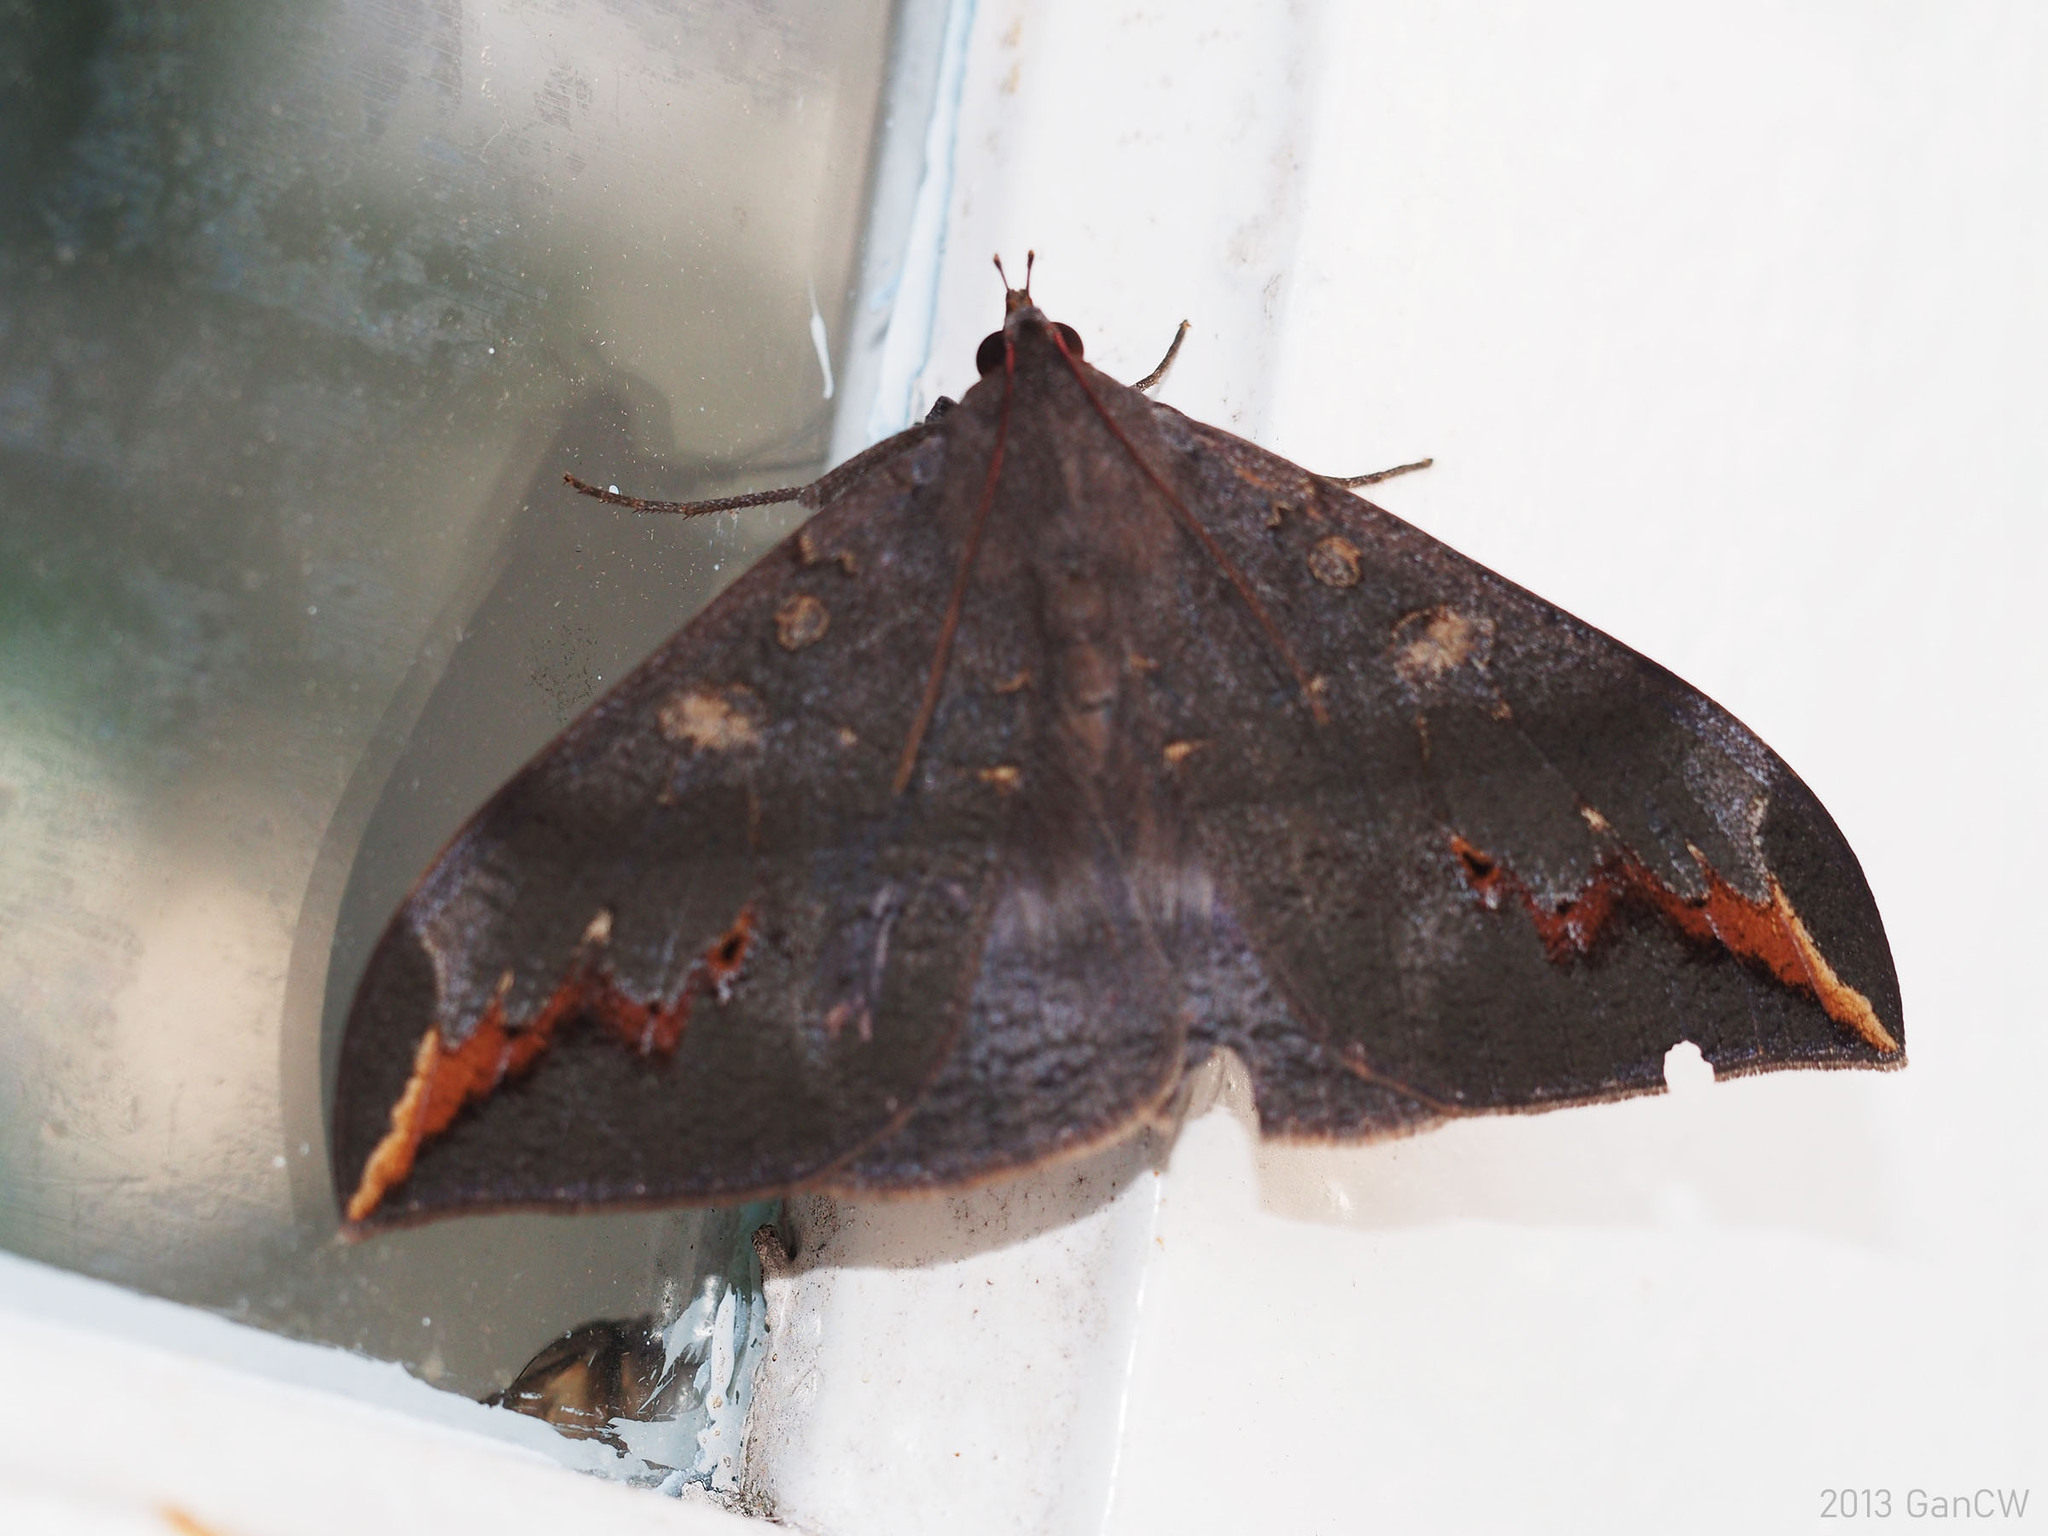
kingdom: Animalia
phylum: Arthropoda
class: Insecta
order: Lepidoptera
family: Erebidae
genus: Ischyja
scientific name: Ischyja ferrifracta
